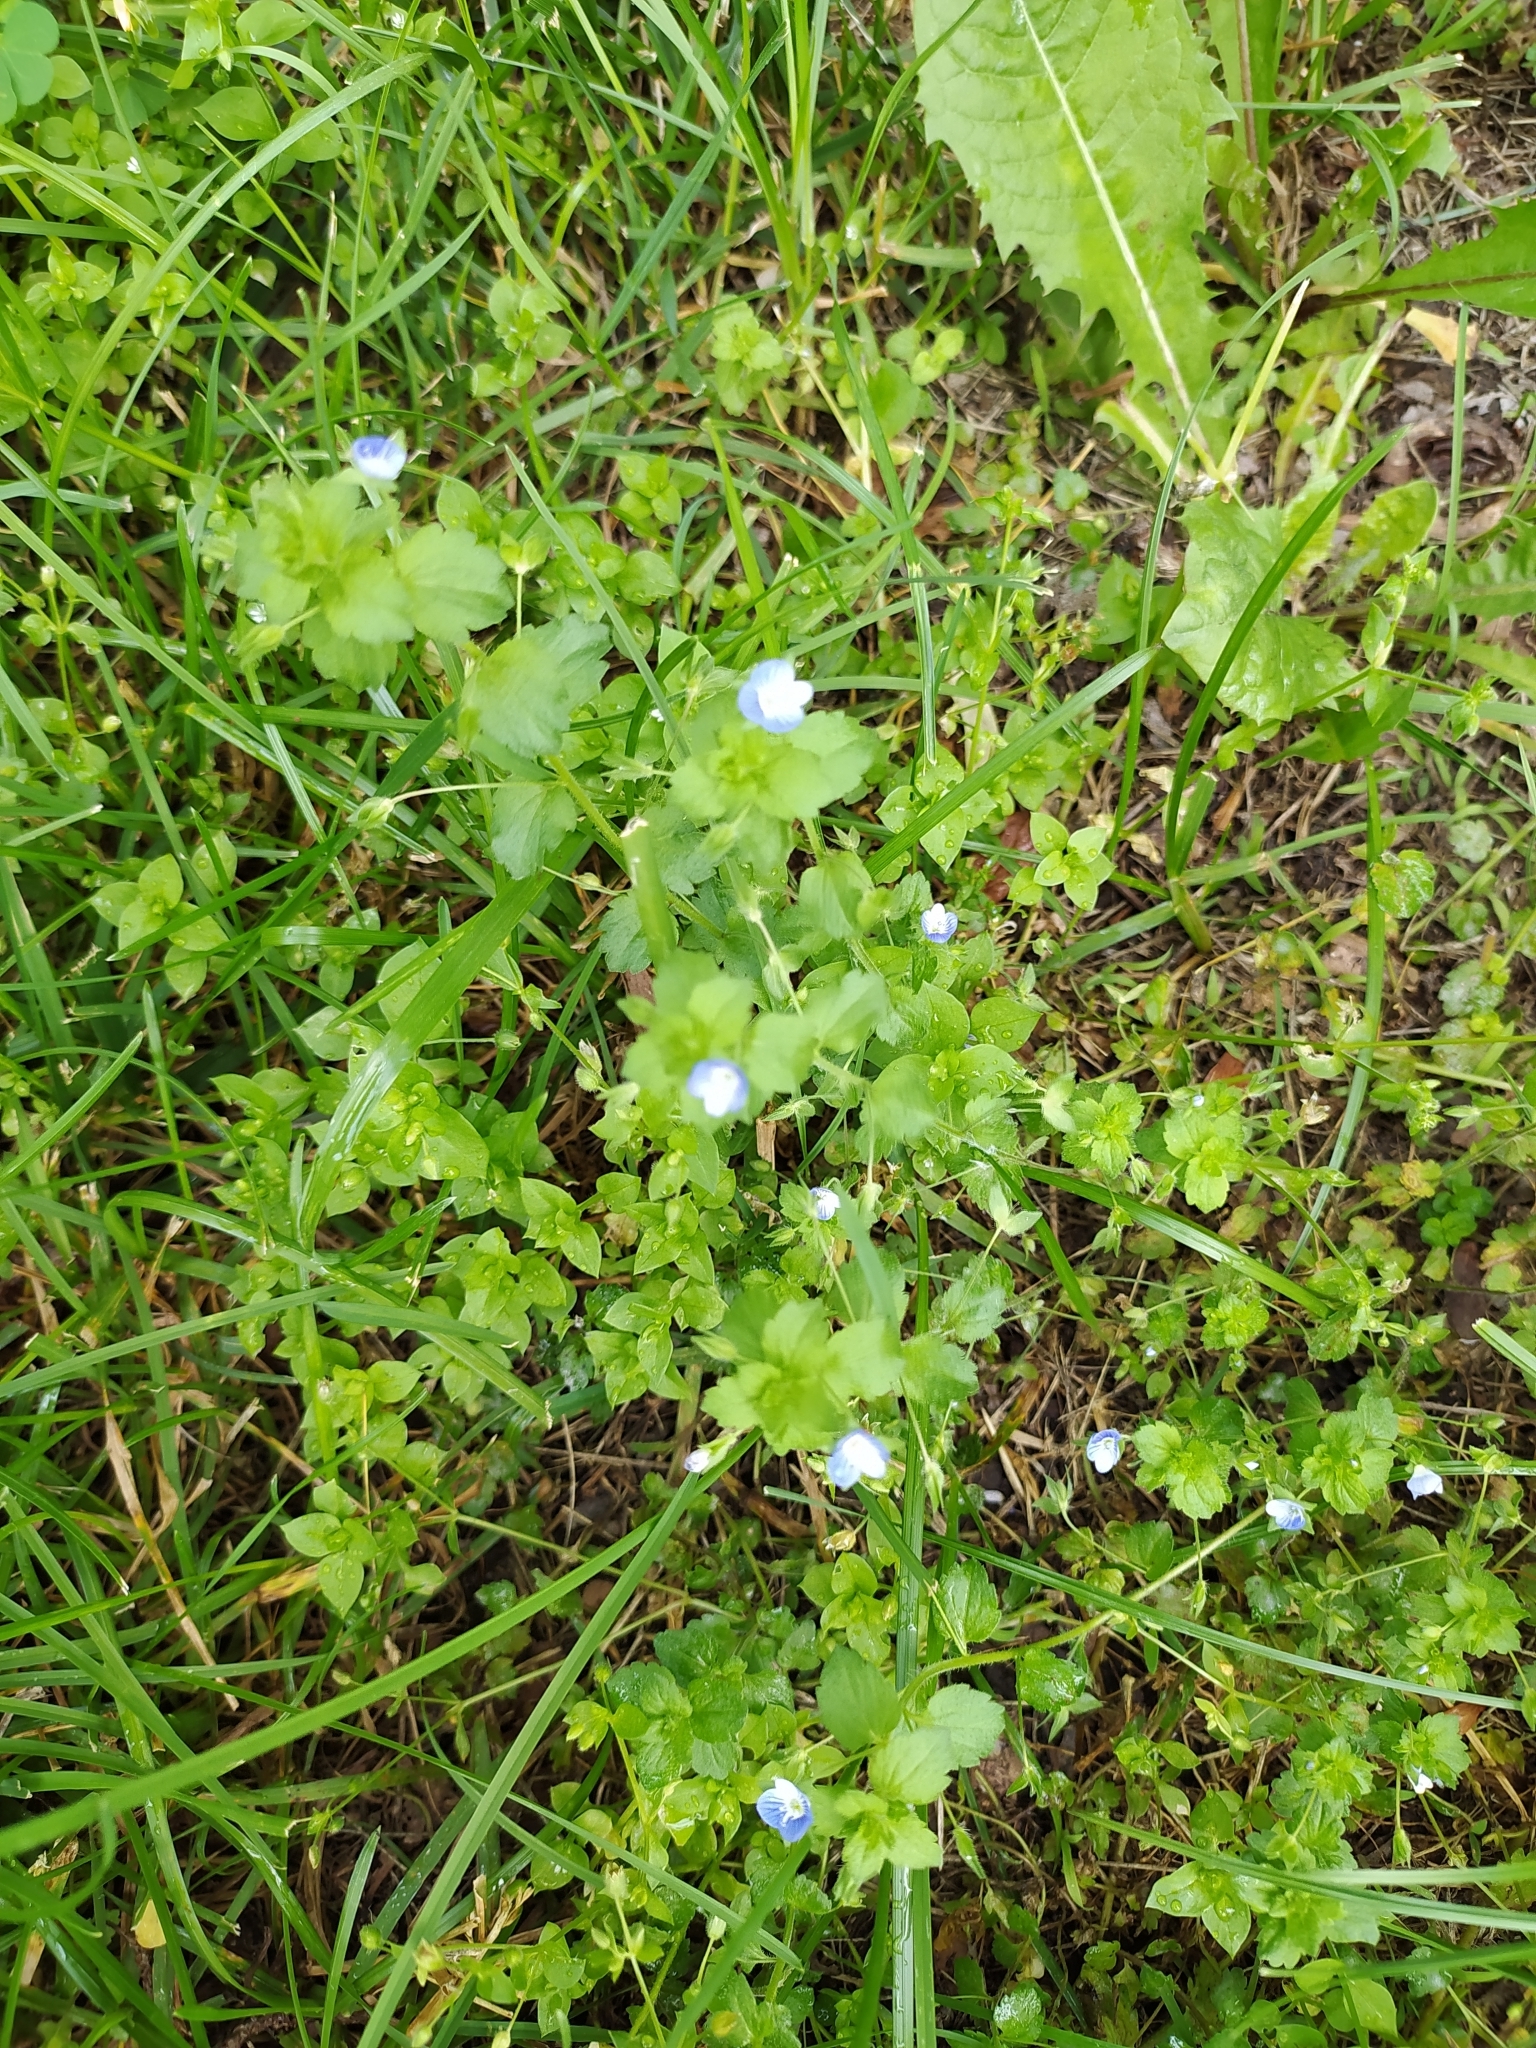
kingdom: Plantae
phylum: Tracheophyta
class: Magnoliopsida
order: Lamiales
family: Plantaginaceae
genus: Veronica
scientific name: Veronica persica
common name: Common field-speedwell
